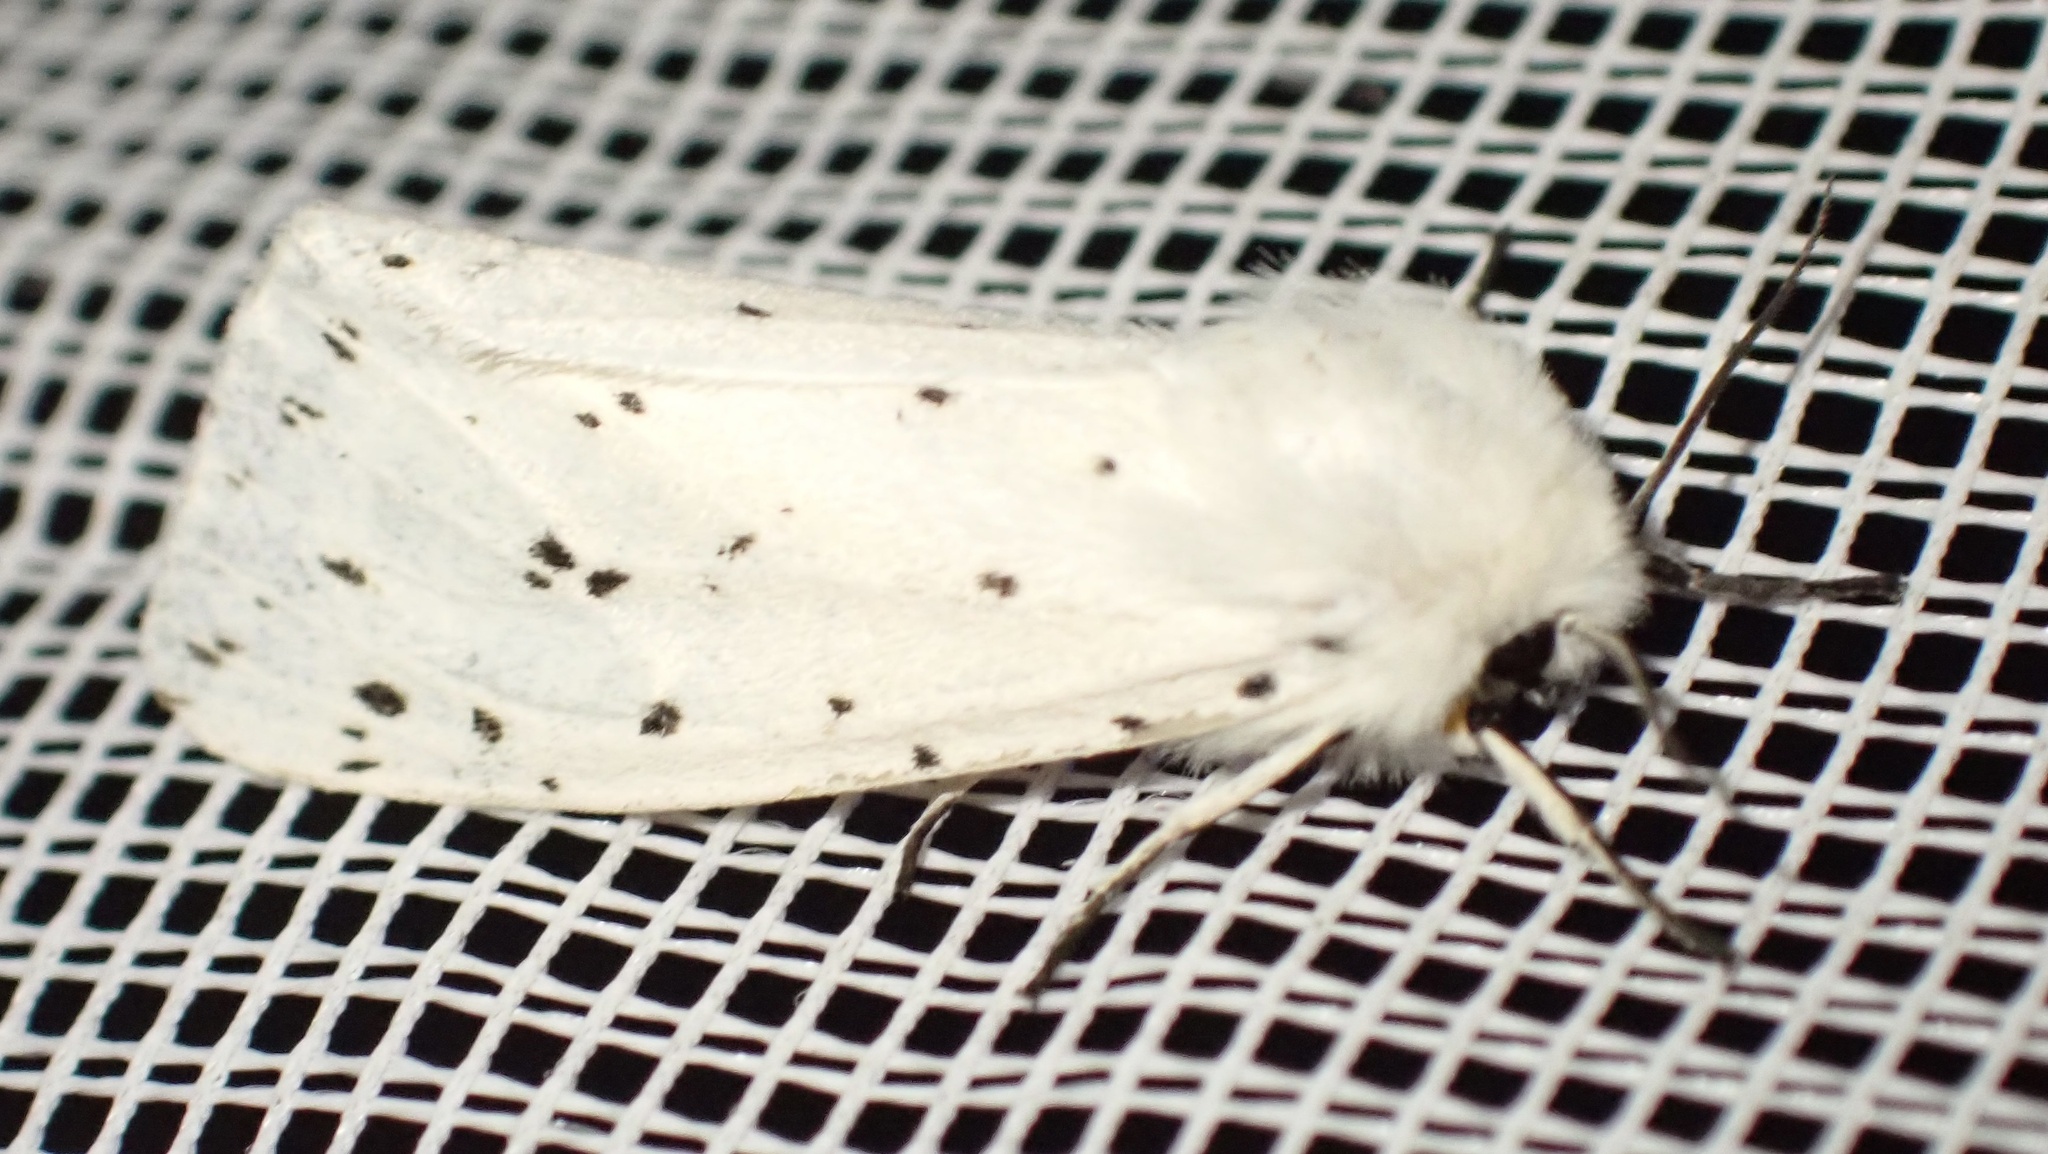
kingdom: Animalia
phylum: Arthropoda
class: Insecta
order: Lepidoptera
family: Erebidae
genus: Spilosoma
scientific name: Spilosoma lubricipeda
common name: White ermine
